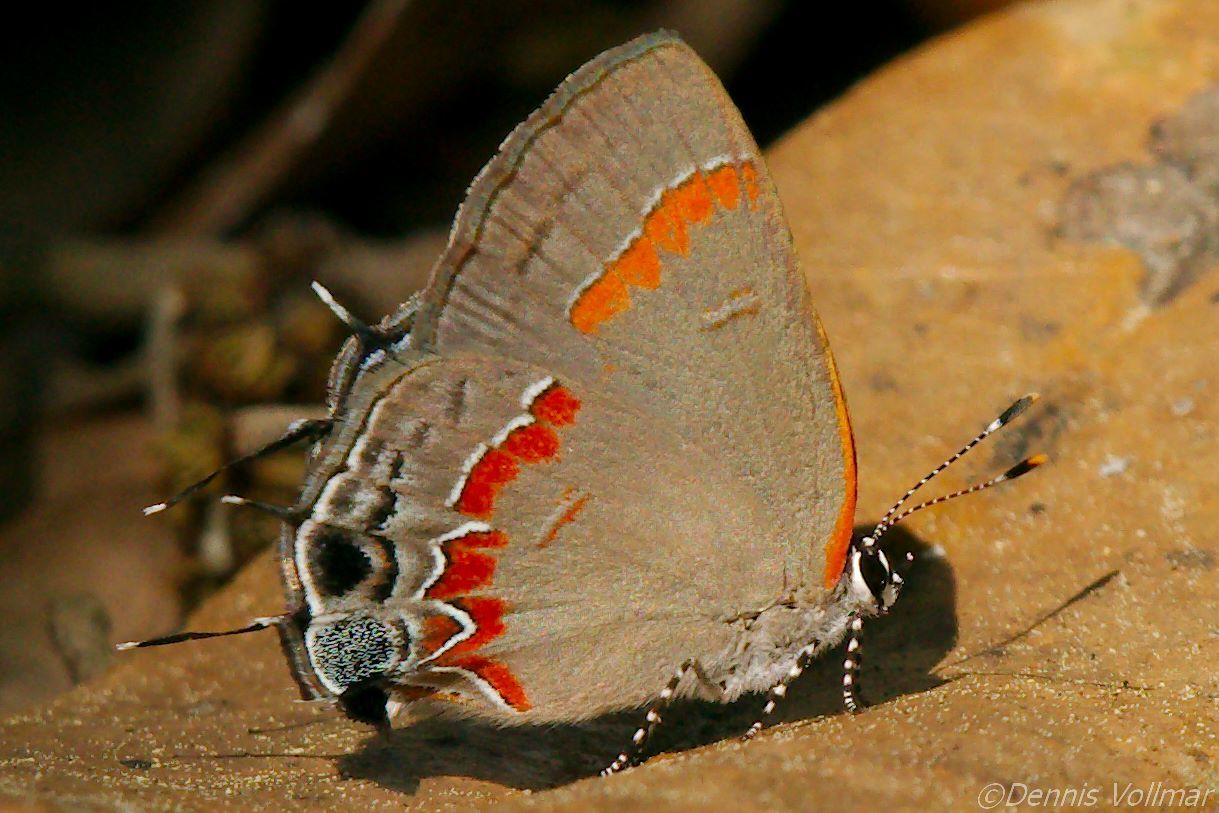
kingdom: Animalia
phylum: Arthropoda
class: Insecta
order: Lepidoptera
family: Lycaenidae
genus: Calycopis
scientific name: Calycopis cecrops
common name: Red-banded hairstreak
